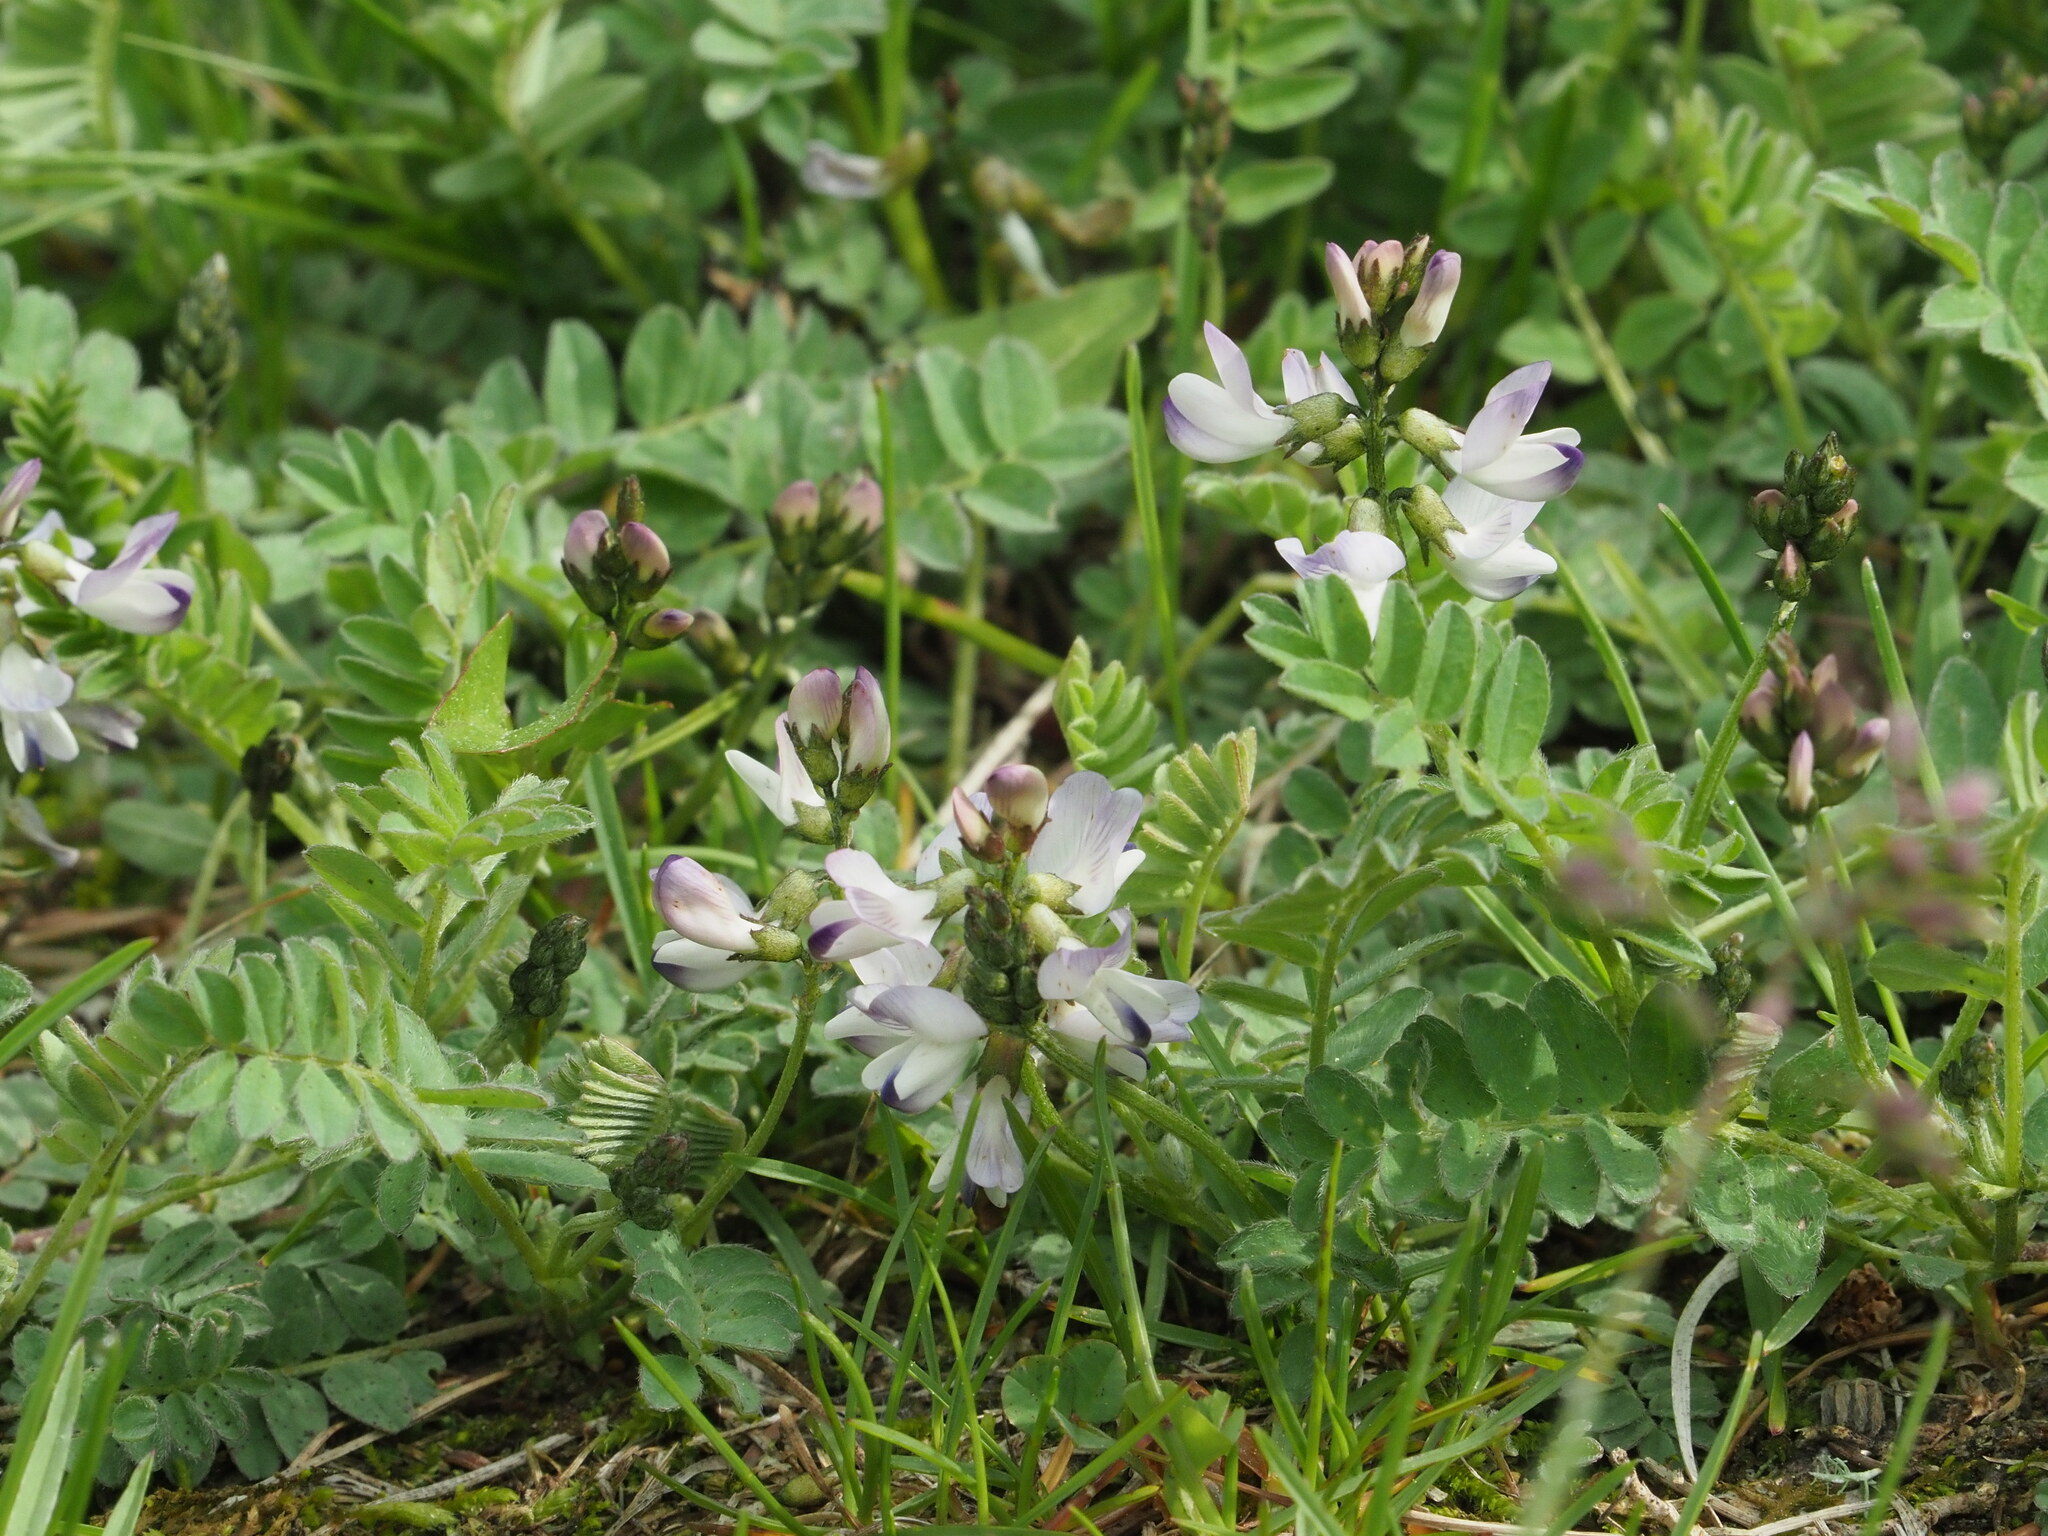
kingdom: Plantae
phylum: Tracheophyta
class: Magnoliopsida
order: Fabales
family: Fabaceae
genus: Astragalus
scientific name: Astragalus alpinus
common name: Alpine milk-vetch
